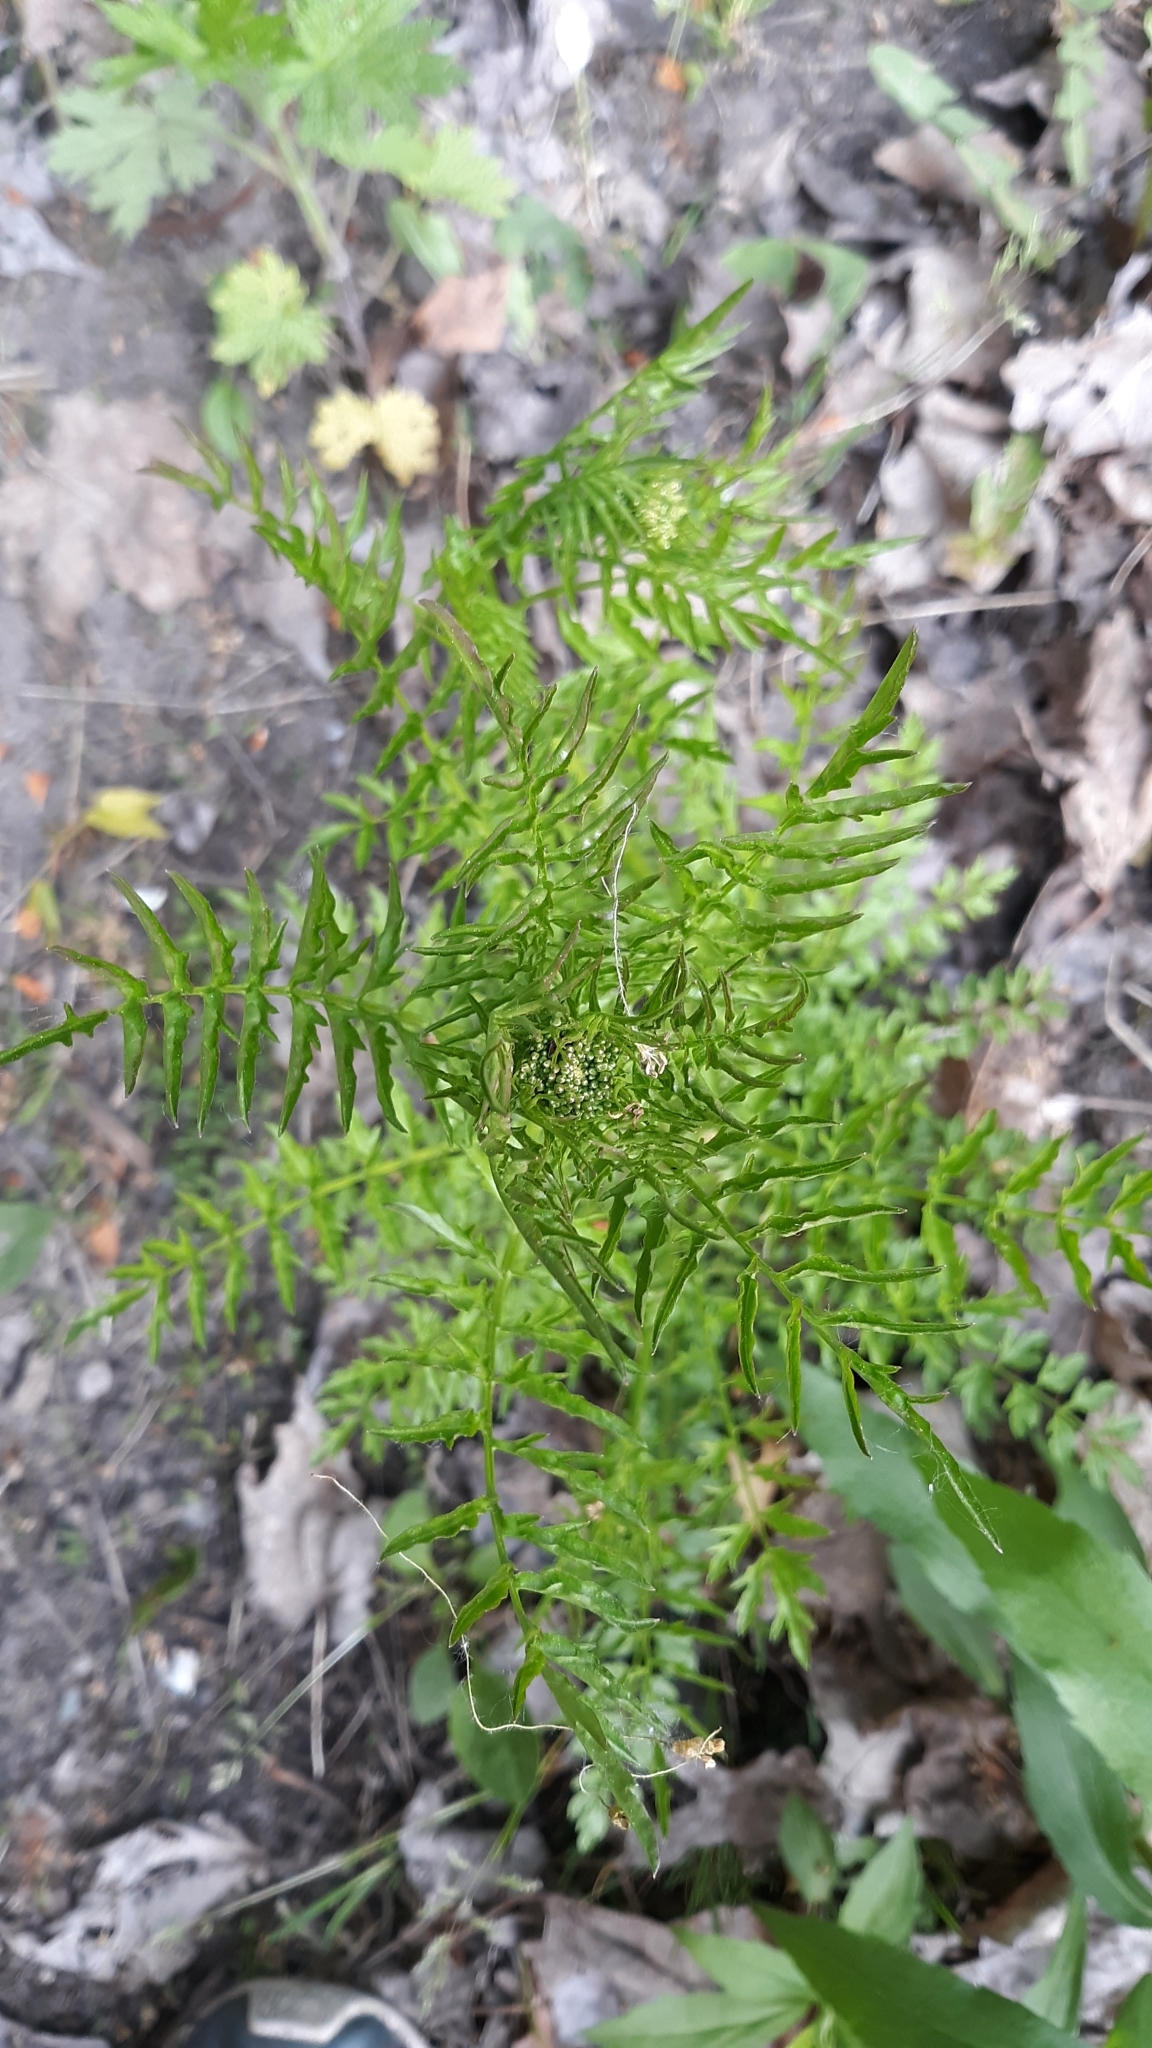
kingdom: Plantae
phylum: Tracheophyta
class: Magnoliopsida
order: Brassicales
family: Brassicaceae
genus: Cardamine
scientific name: Cardamine impatiens
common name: Narrow-leaved bitter-cress
